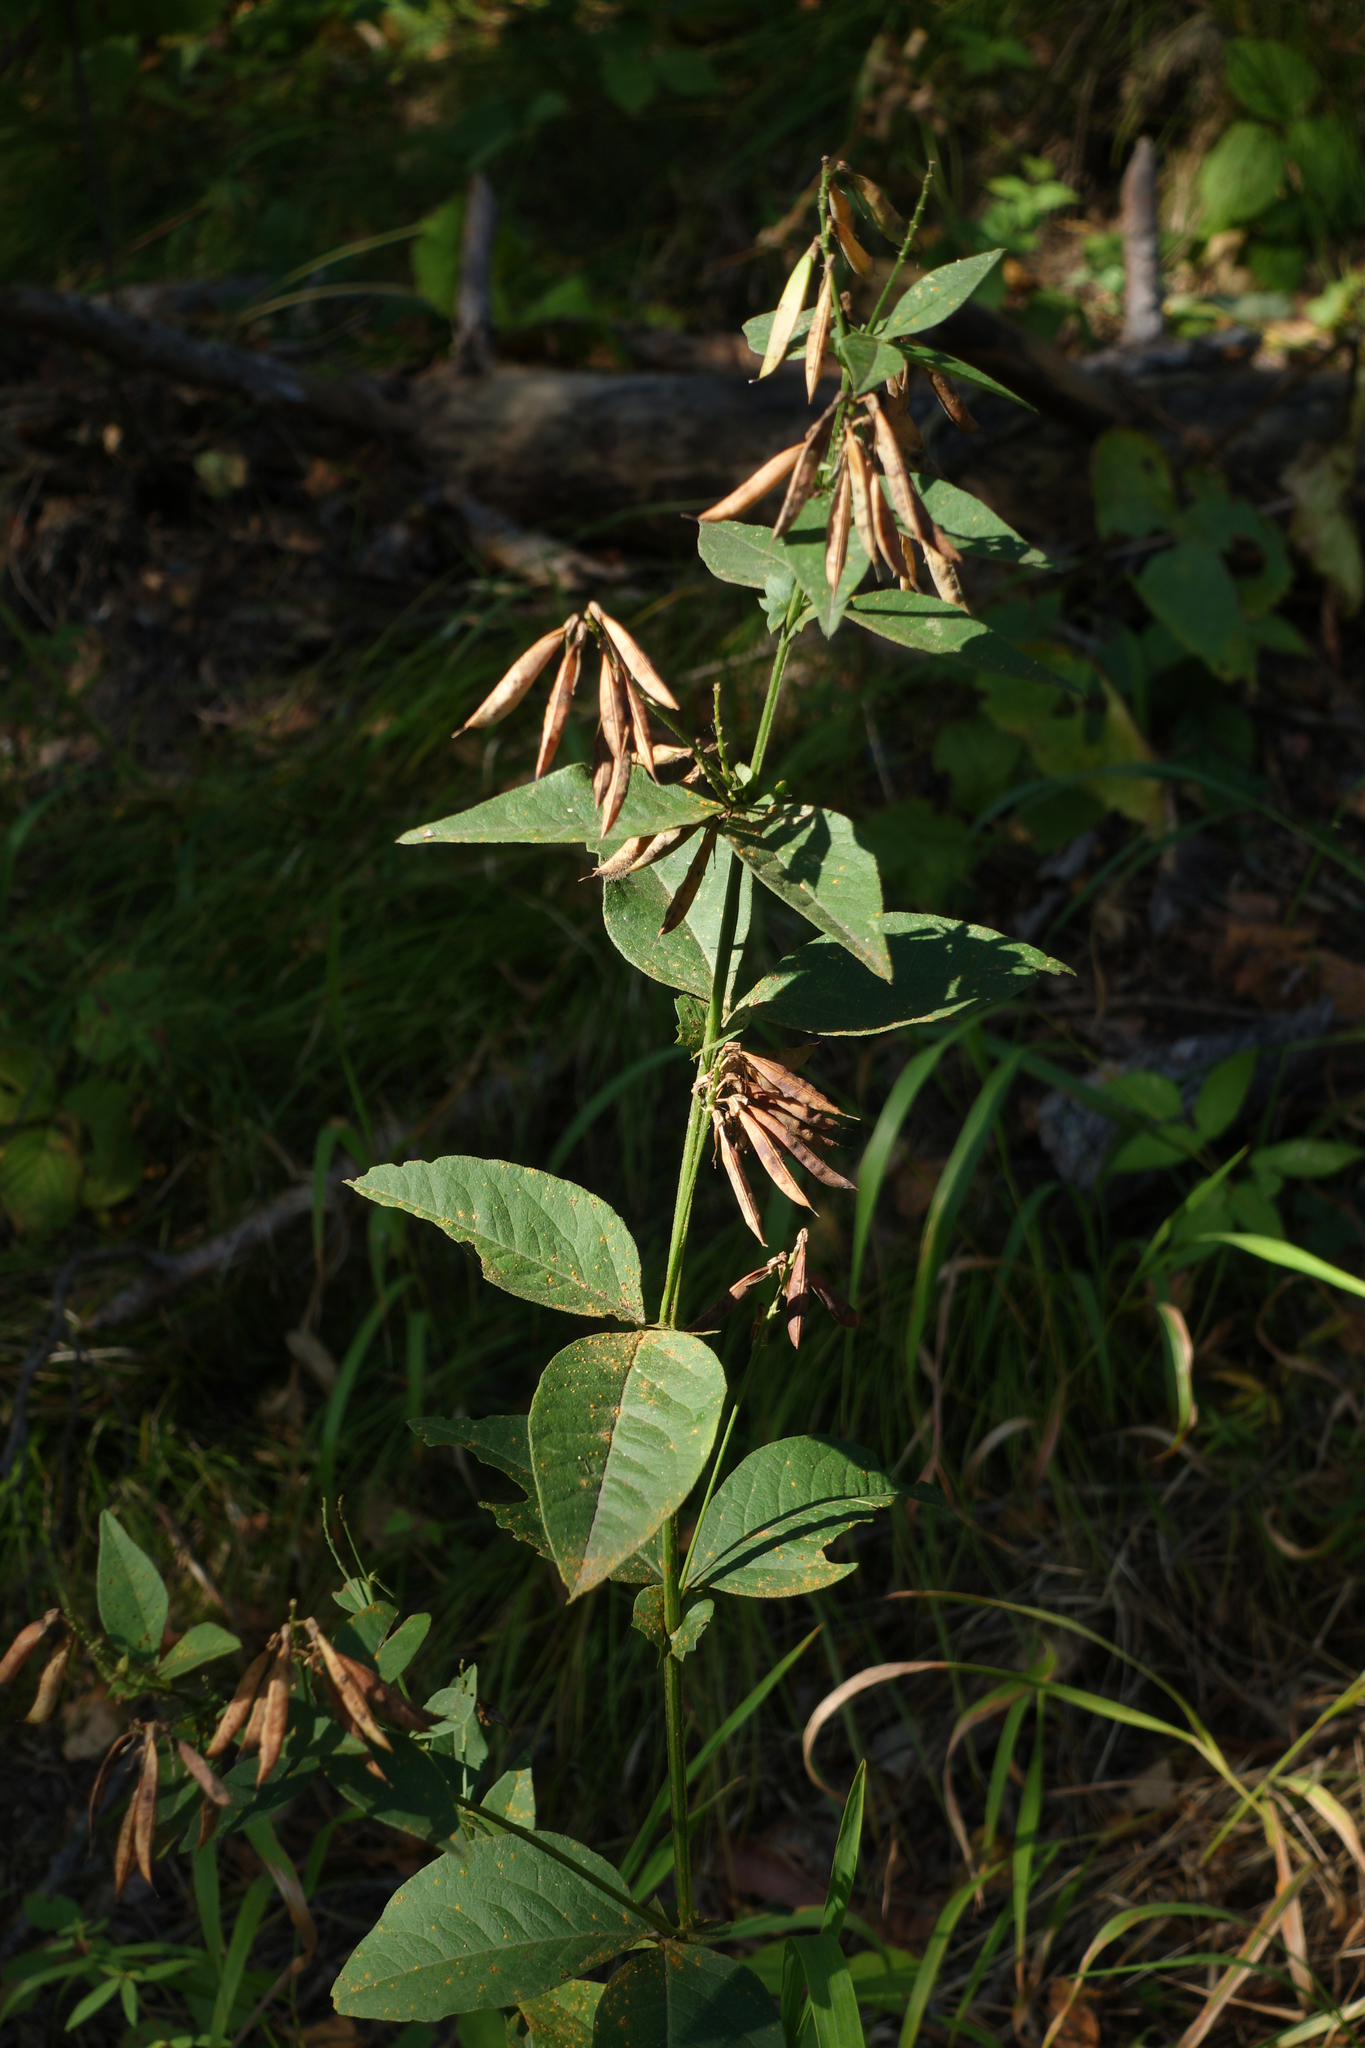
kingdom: Plantae
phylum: Tracheophyta
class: Magnoliopsida
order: Fabales
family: Fabaceae
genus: Vicia
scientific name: Vicia unijuga
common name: Two-leaf vetch
